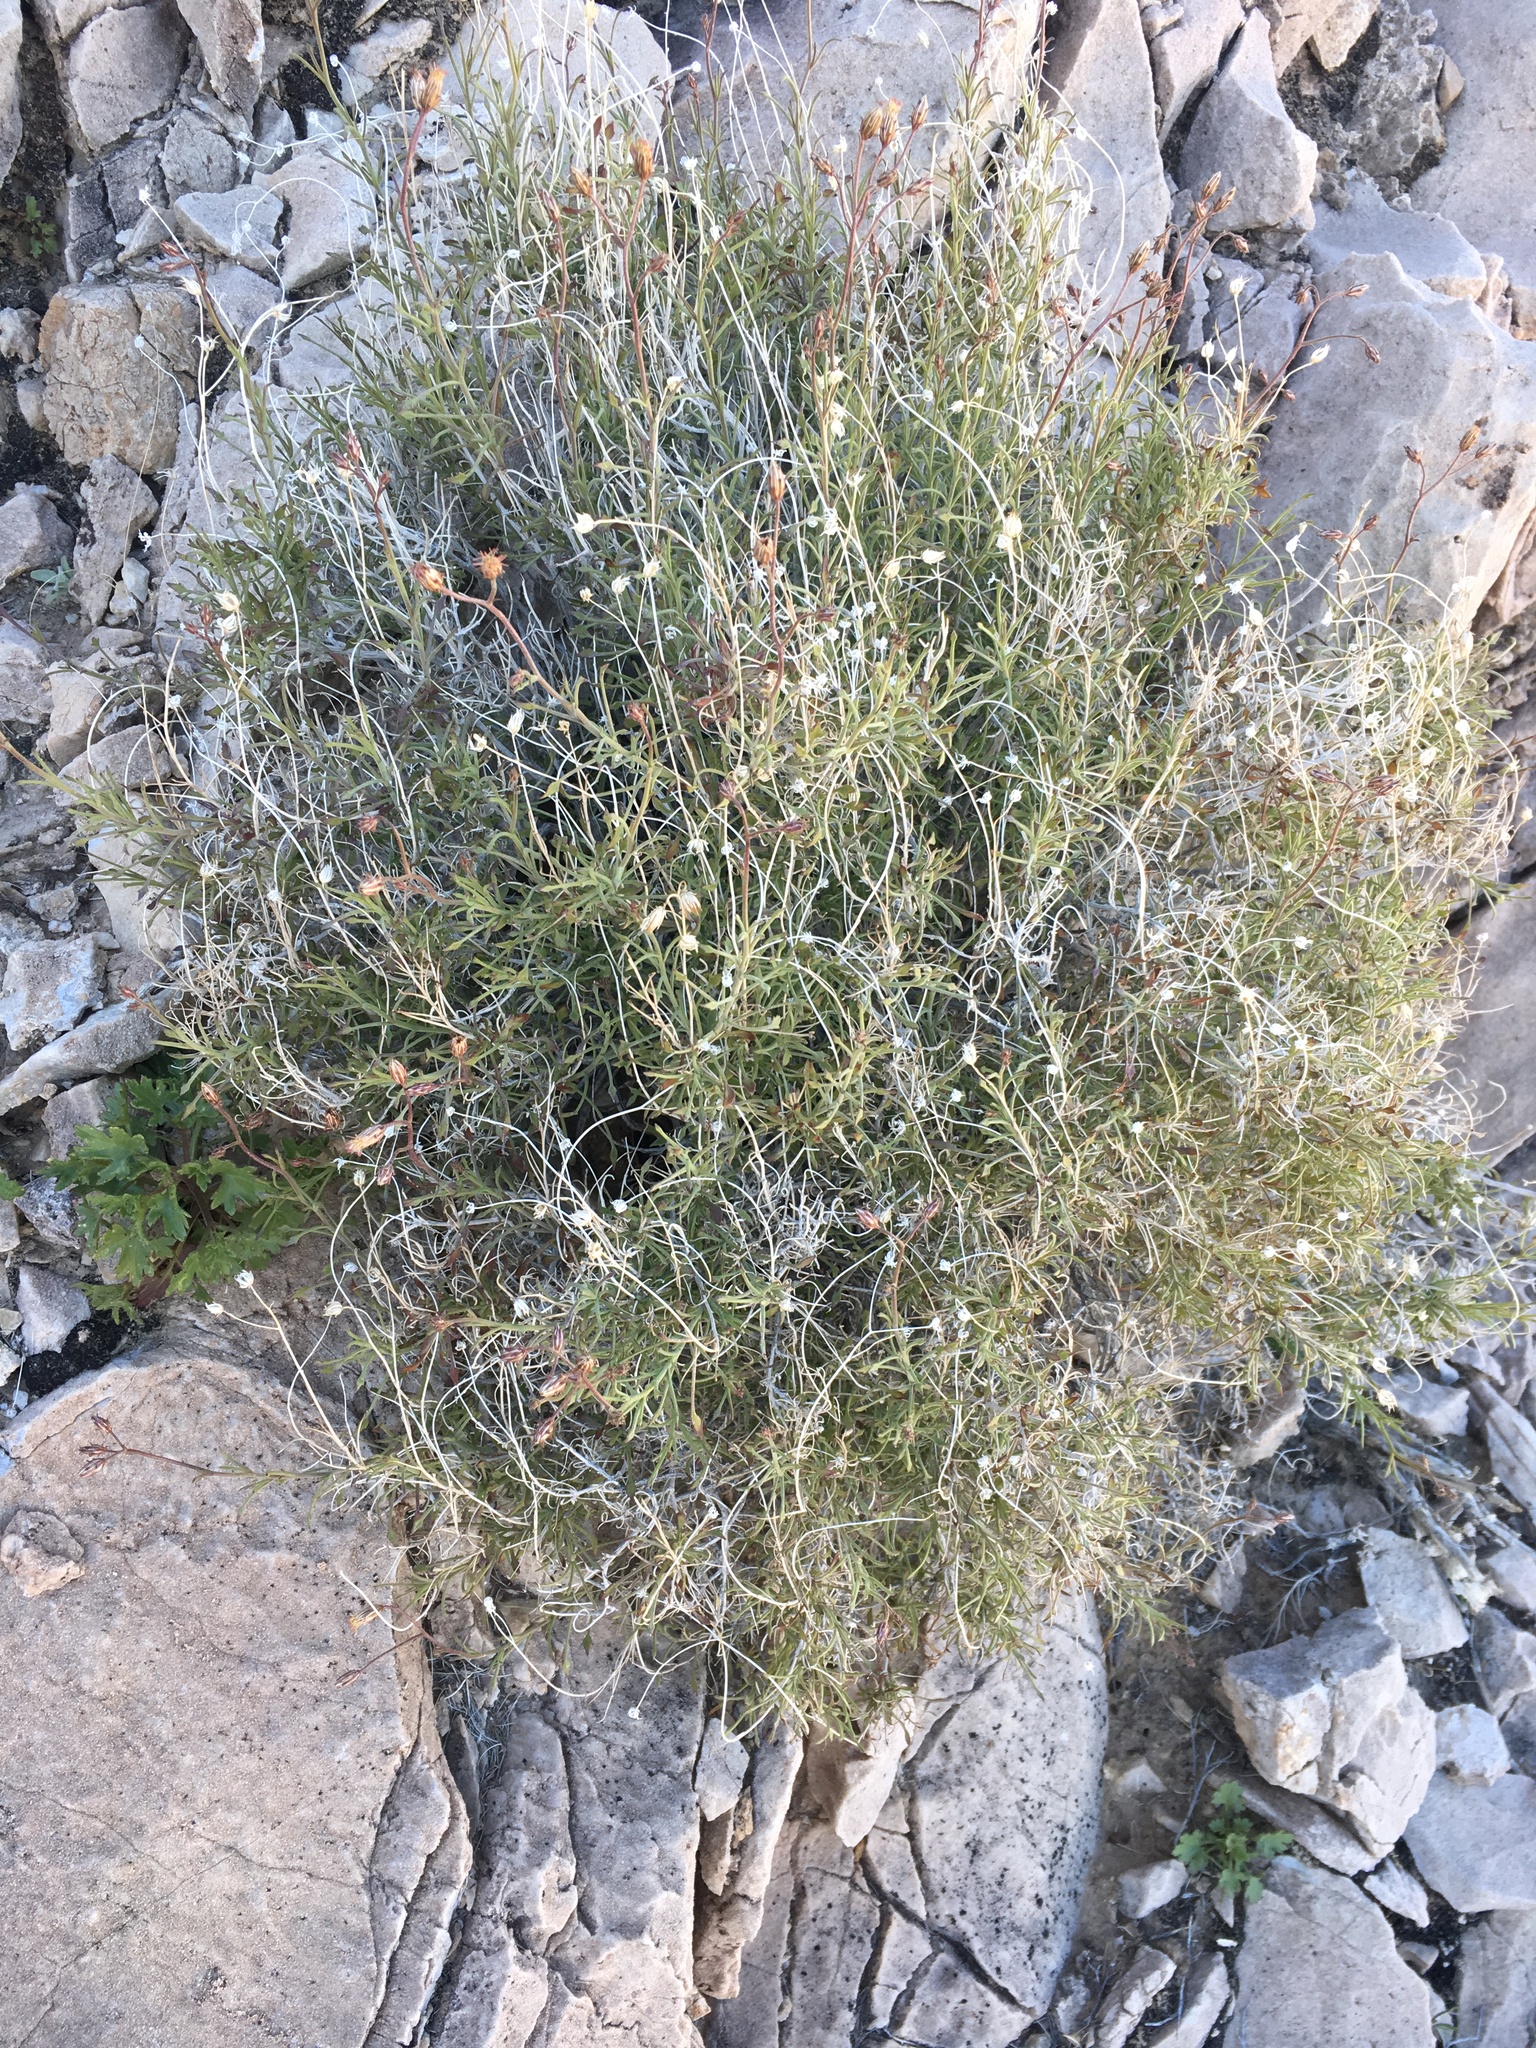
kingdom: Plantae
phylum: Tracheophyta
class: Magnoliopsida
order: Asterales
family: Asteraceae
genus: Pleurocoronis
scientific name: Pleurocoronis pluriseta
